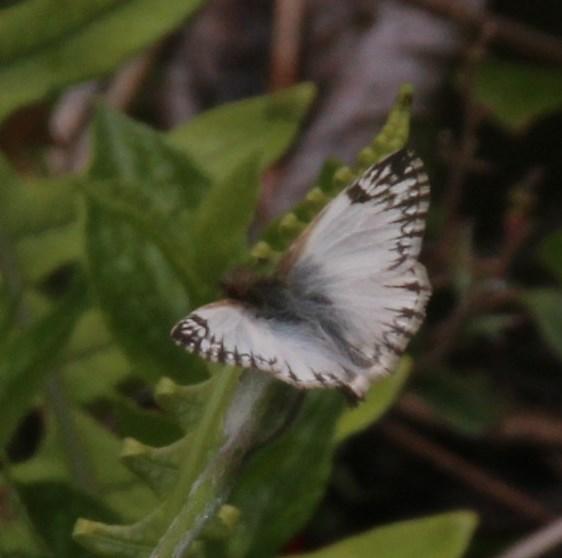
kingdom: Animalia
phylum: Arthropoda
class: Insecta
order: Lepidoptera
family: Hesperiidae
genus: Heliopetes
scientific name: Heliopetes omrina
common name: Stained white-skipper
